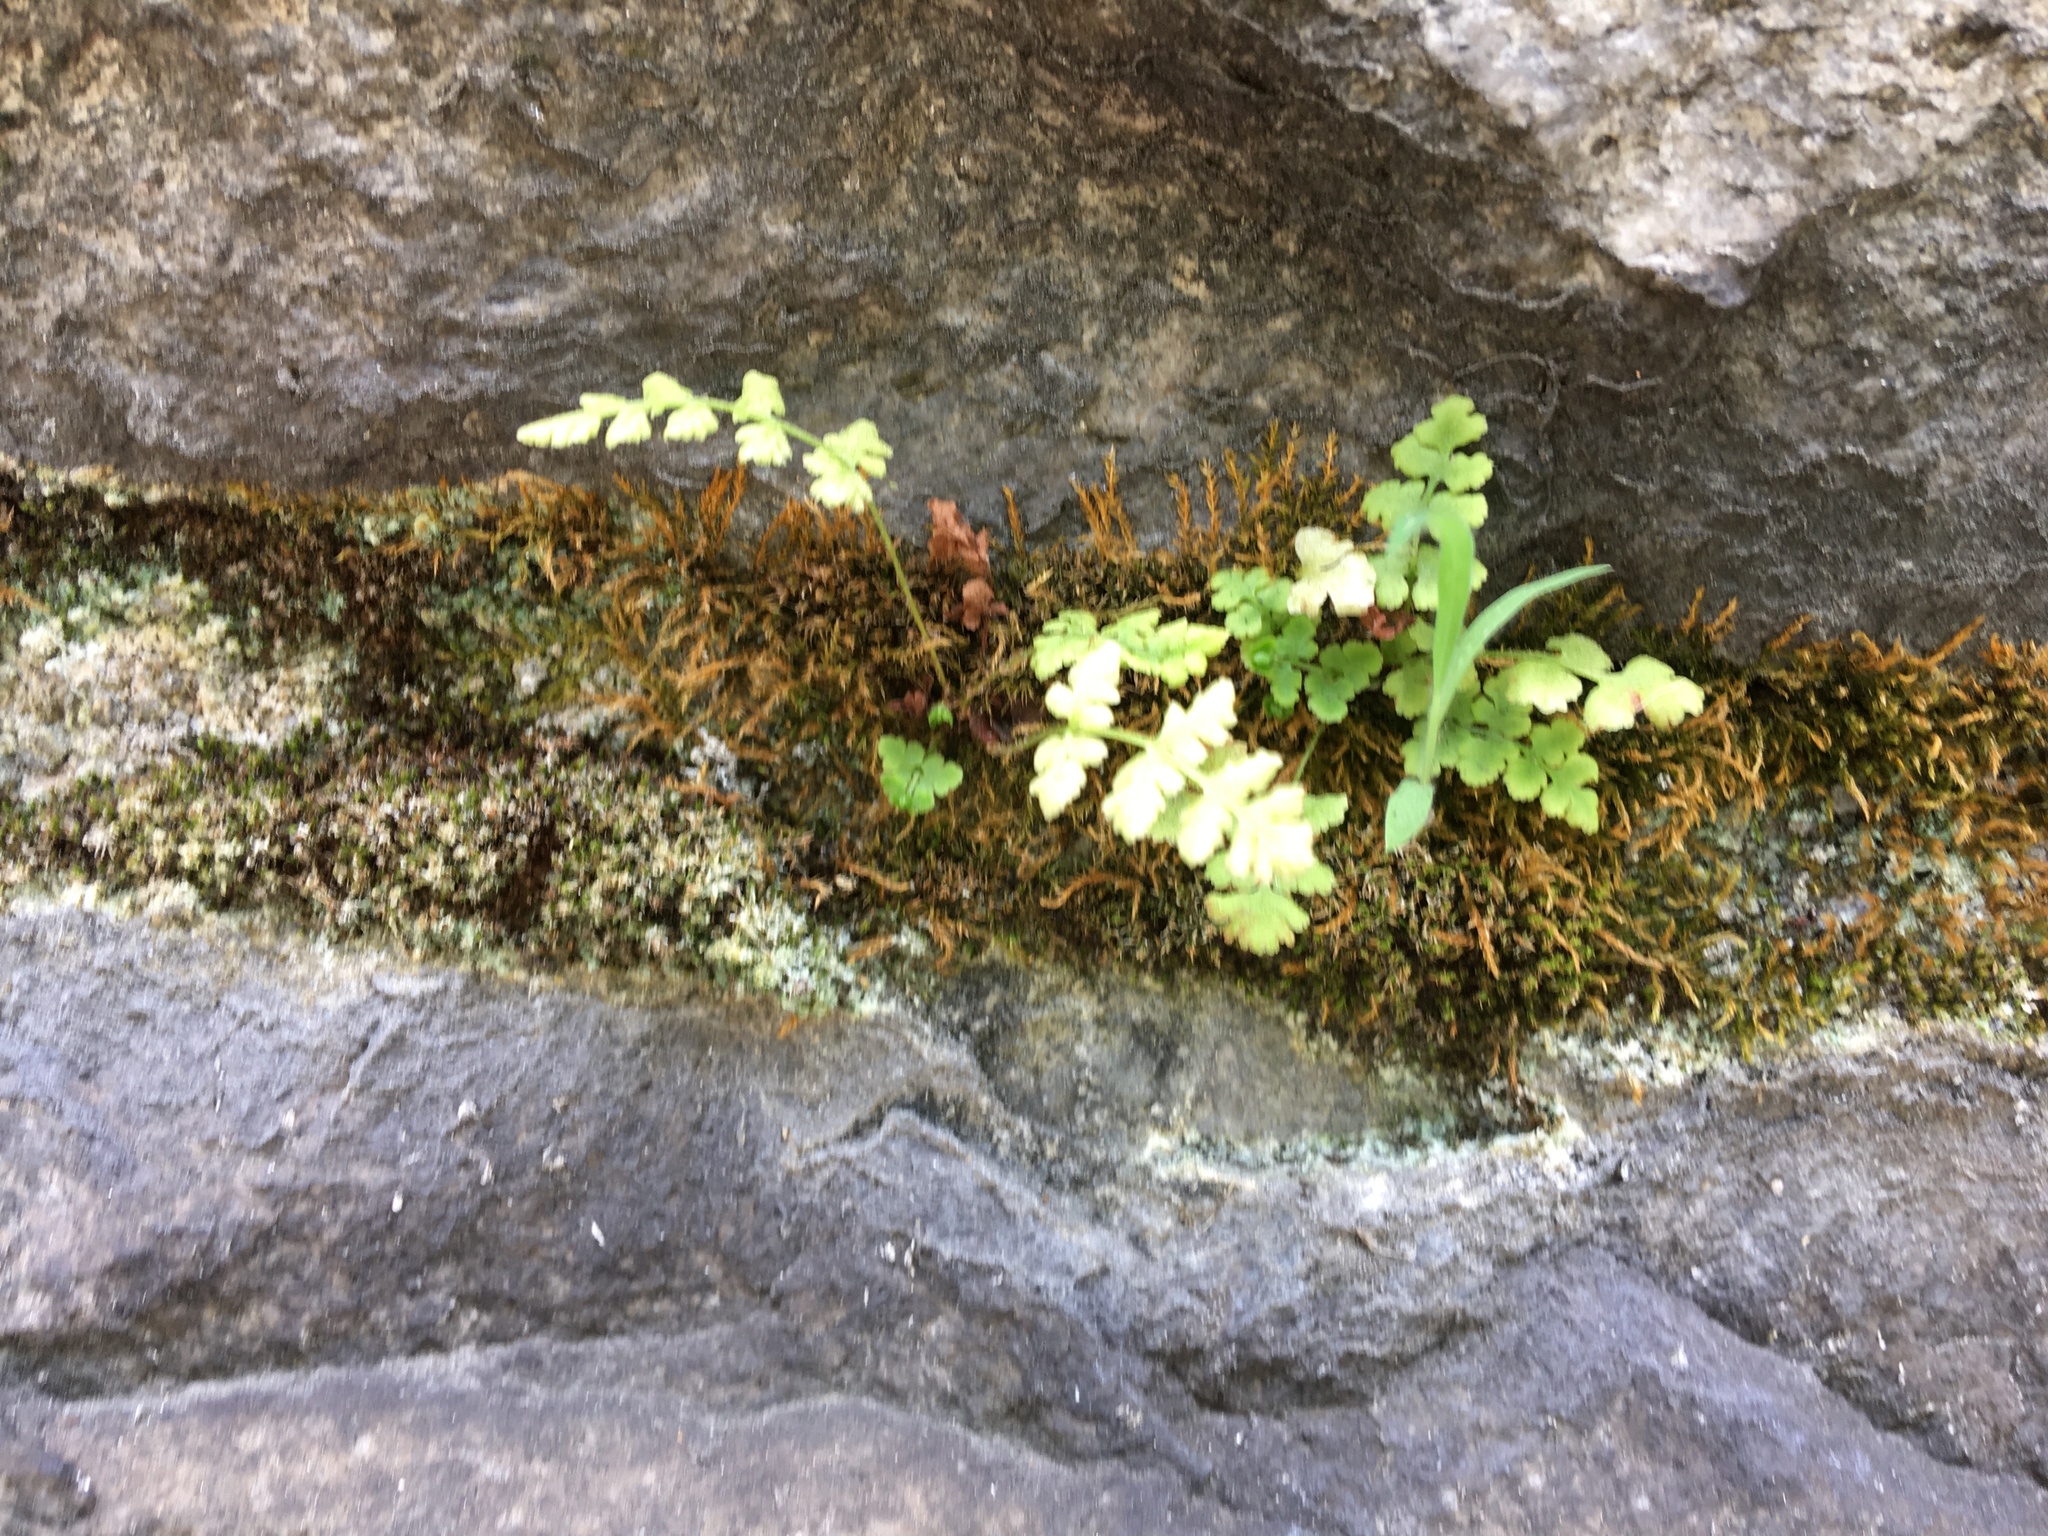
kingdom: Plantae
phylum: Tracheophyta
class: Polypodiopsida
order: Polypodiales
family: Woodsiaceae
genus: Physematium
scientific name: Physematium obtusum
